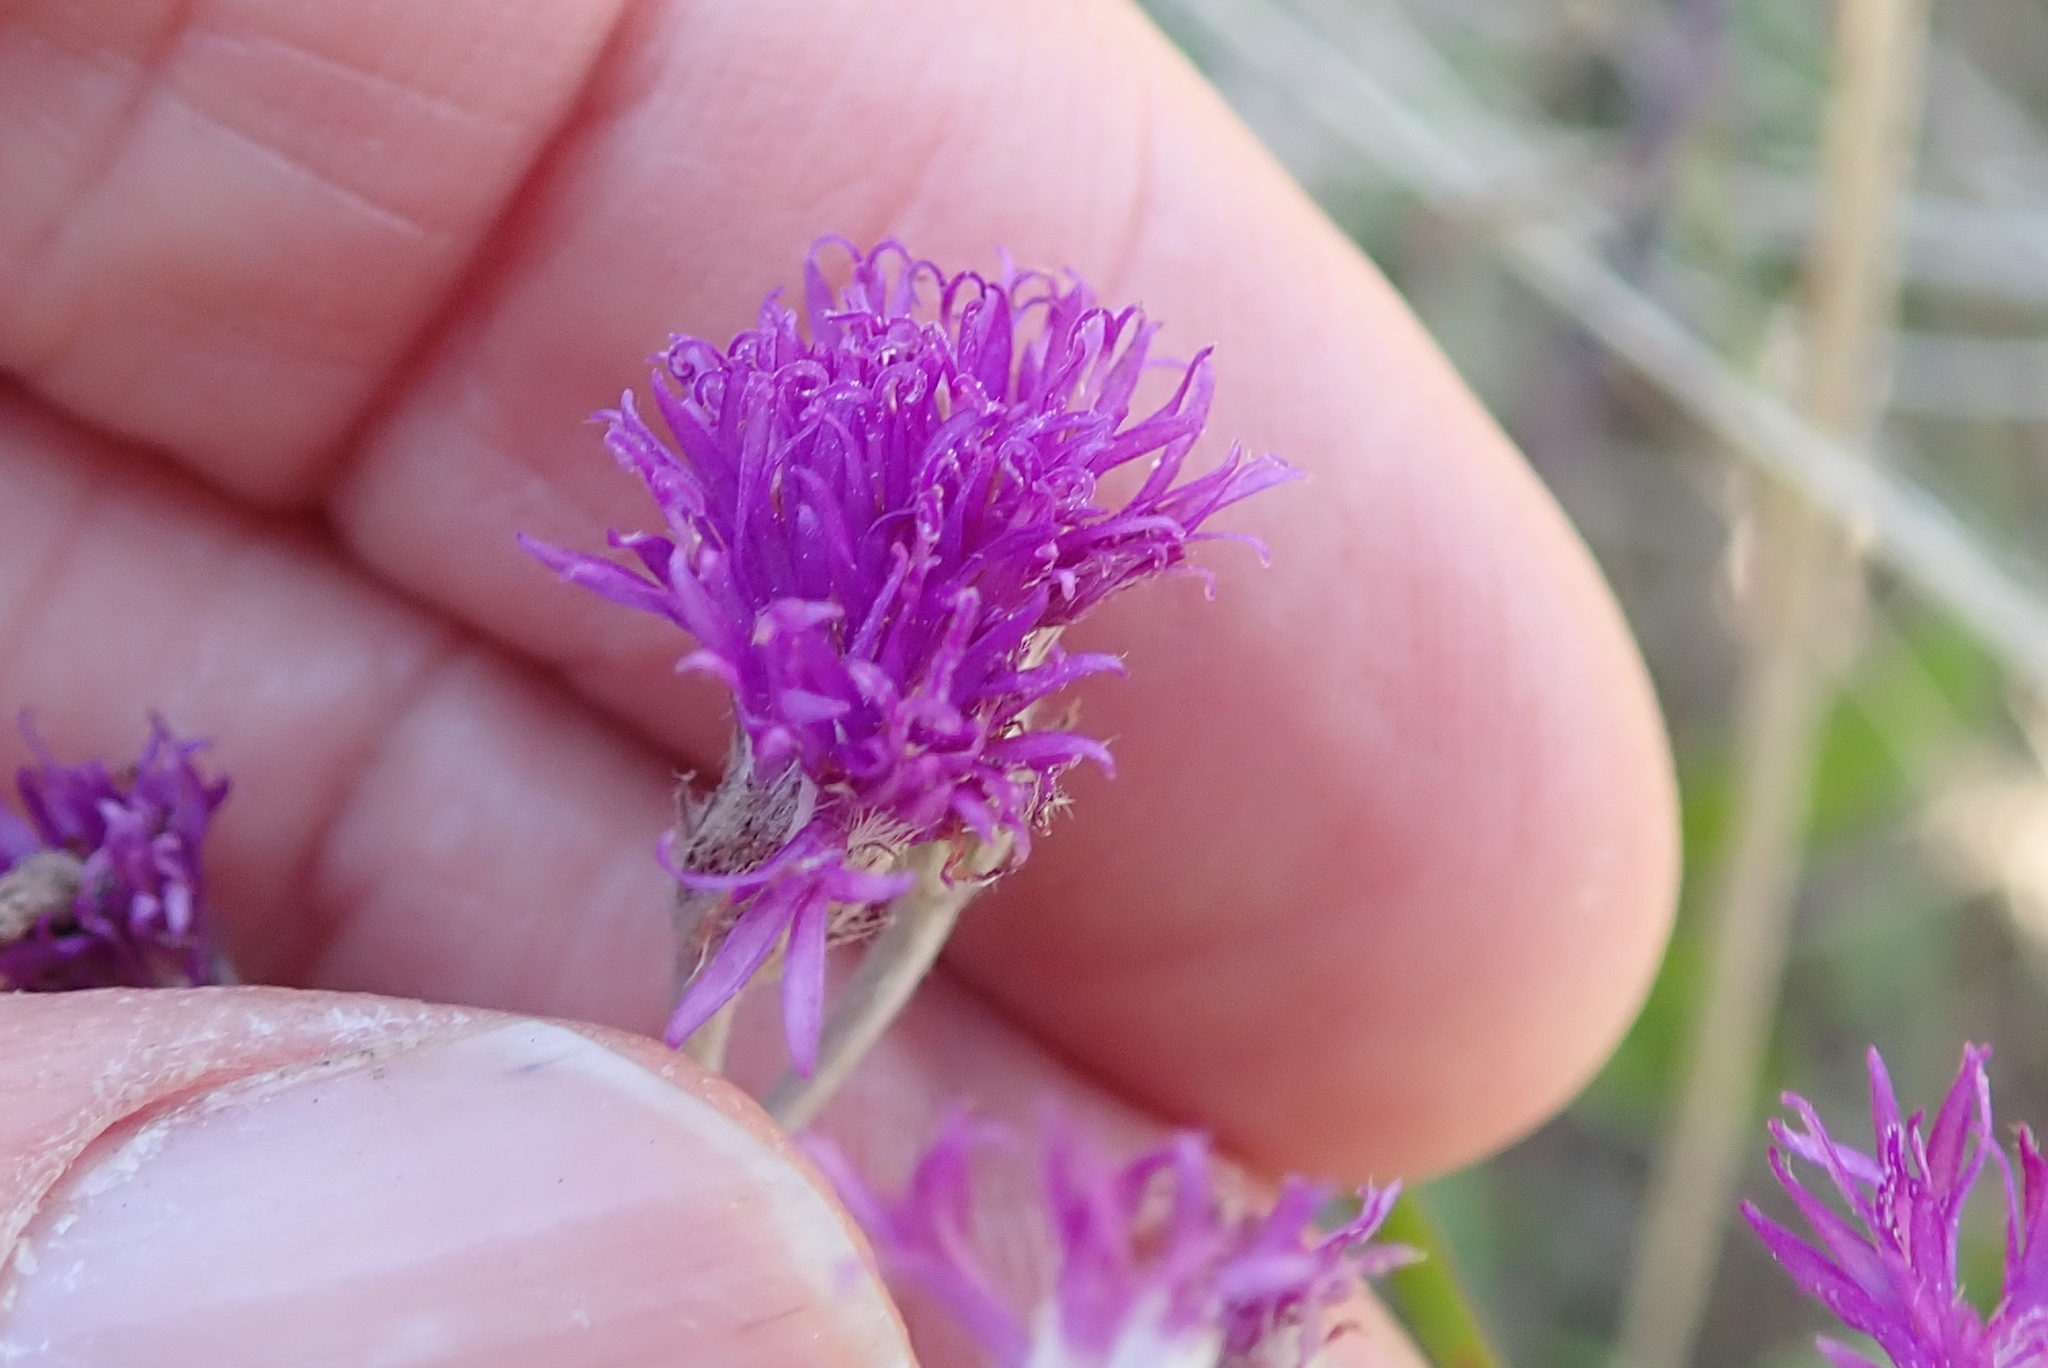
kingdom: Plantae
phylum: Tracheophyta
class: Magnoliopsida
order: Asterales
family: Asteraceae
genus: Hilliardiella
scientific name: Hilliardiella aristata
